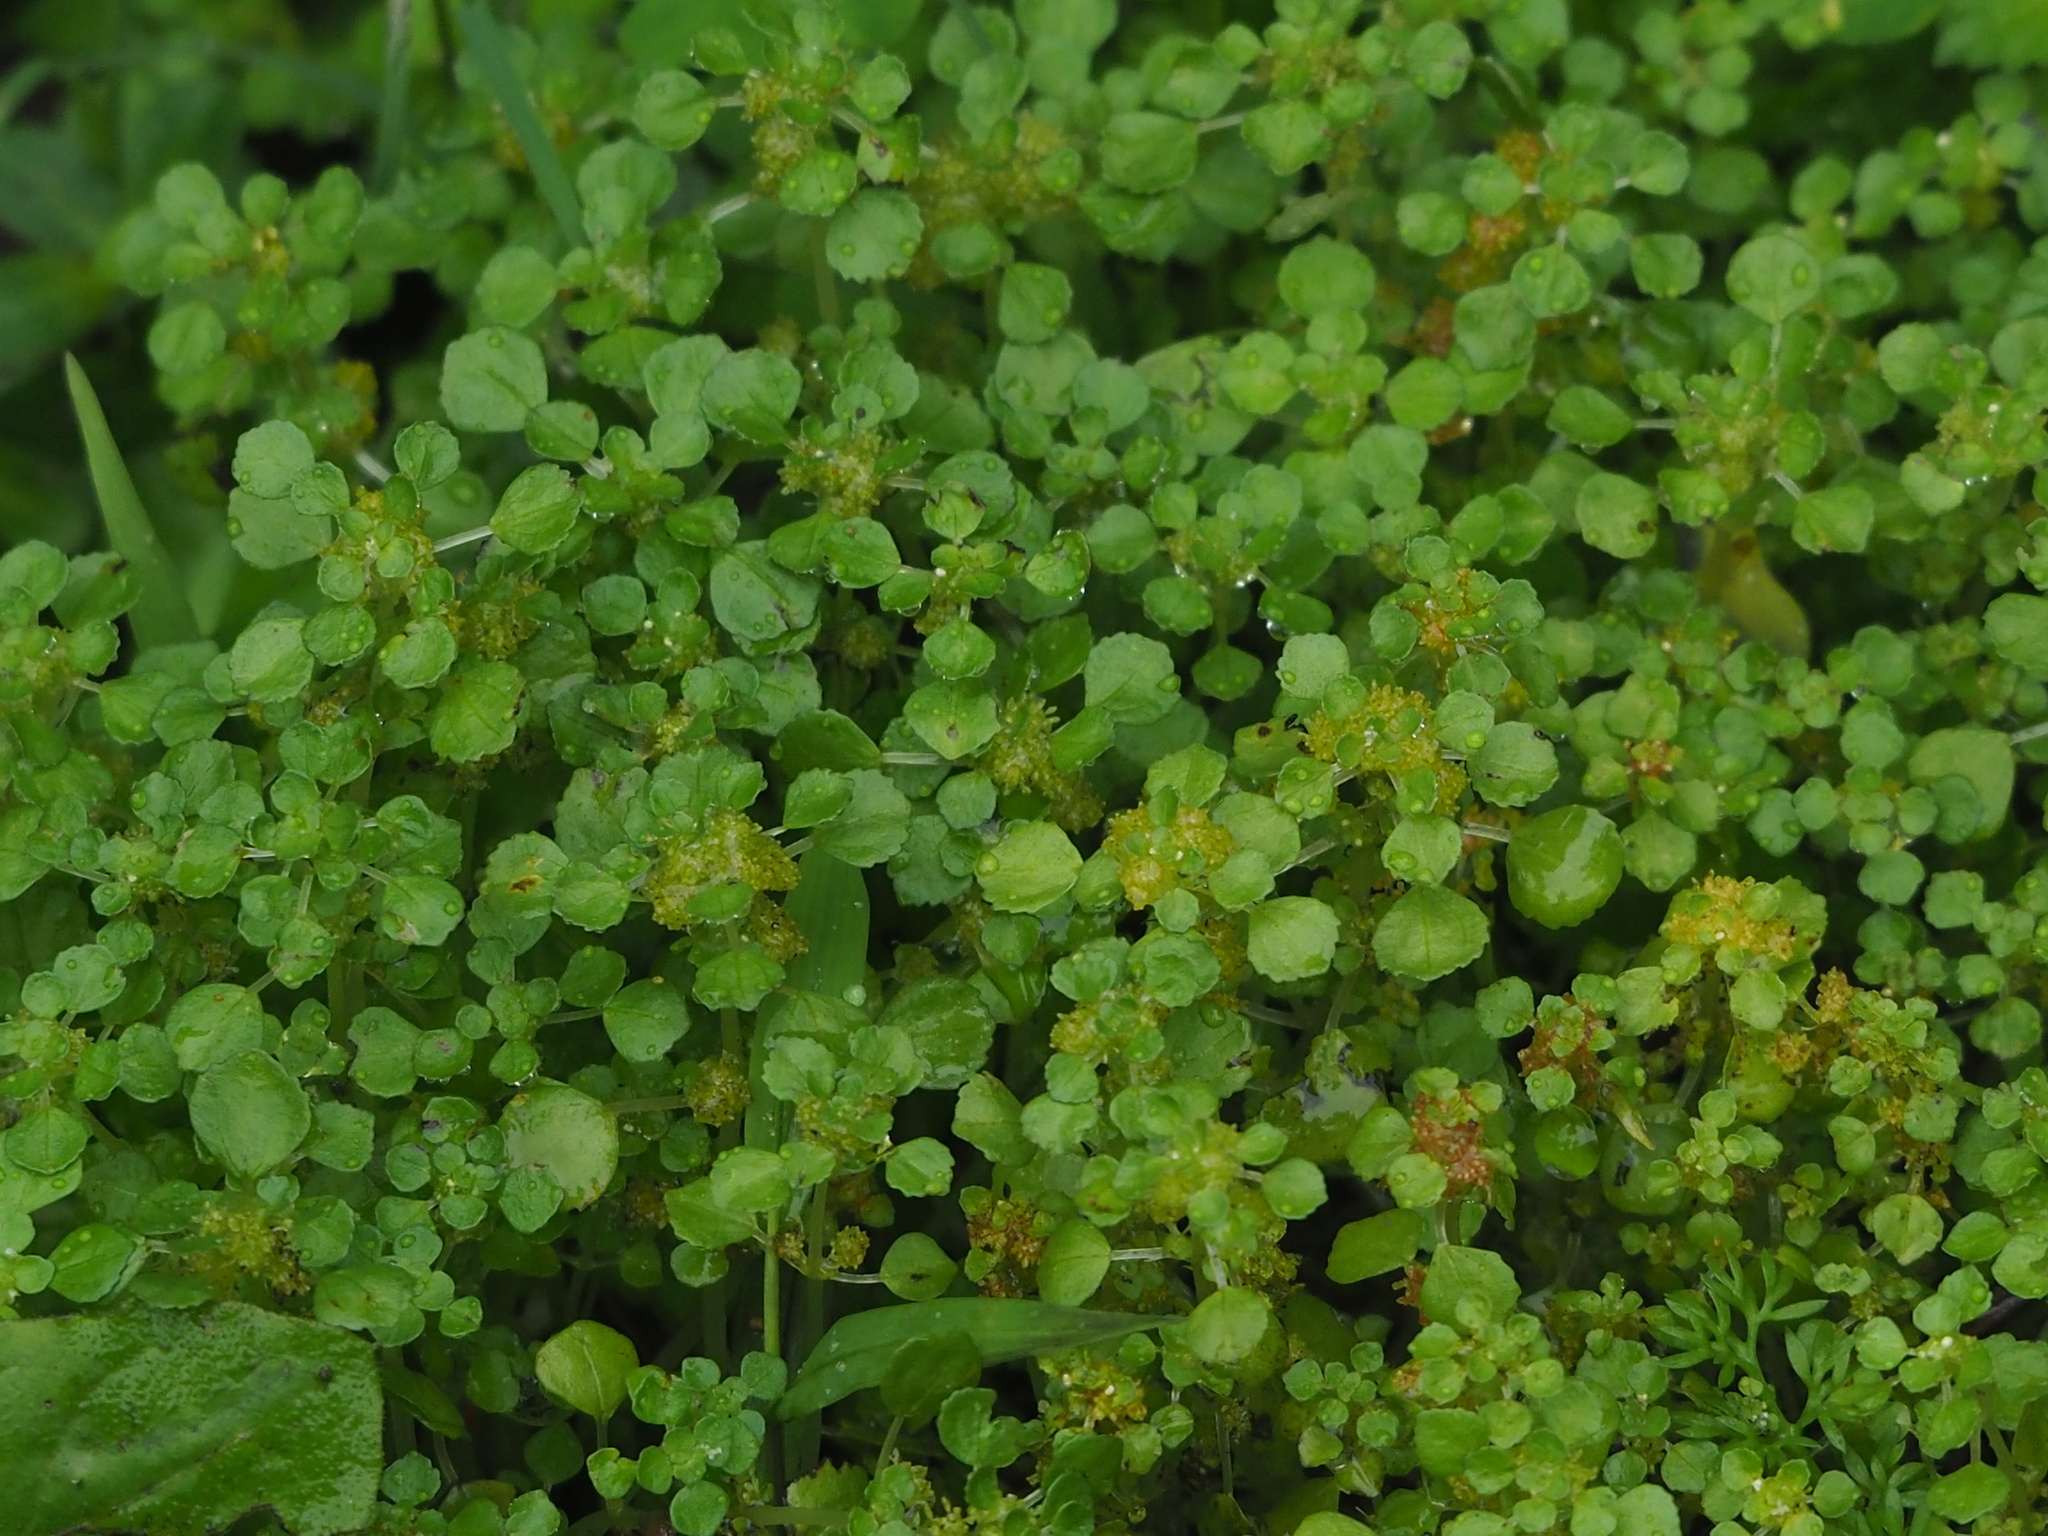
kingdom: Plantae
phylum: Tracheophyta
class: Magnoliopsida
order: Rosales
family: Urticaceae
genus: Pilea
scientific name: Pilea peploides
